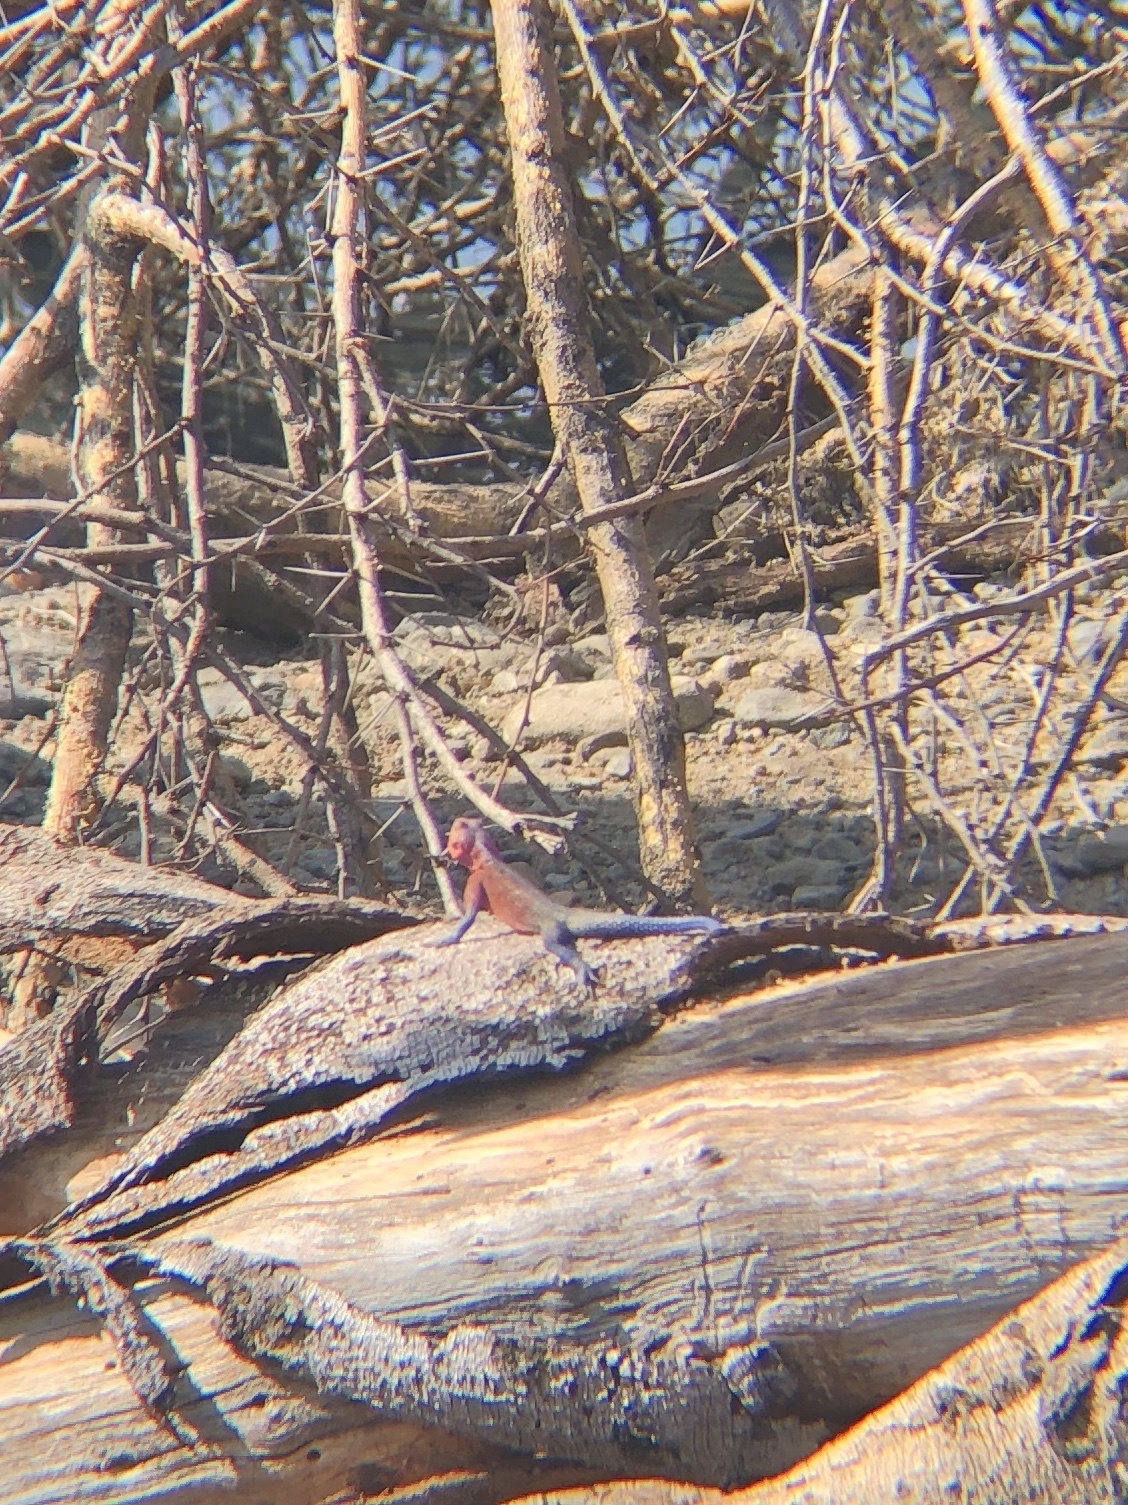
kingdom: Animalia
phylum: Chordata
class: Squamata
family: Agamidae
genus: Agama
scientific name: Agama mwanzae
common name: Mwanza flat-headed agama
